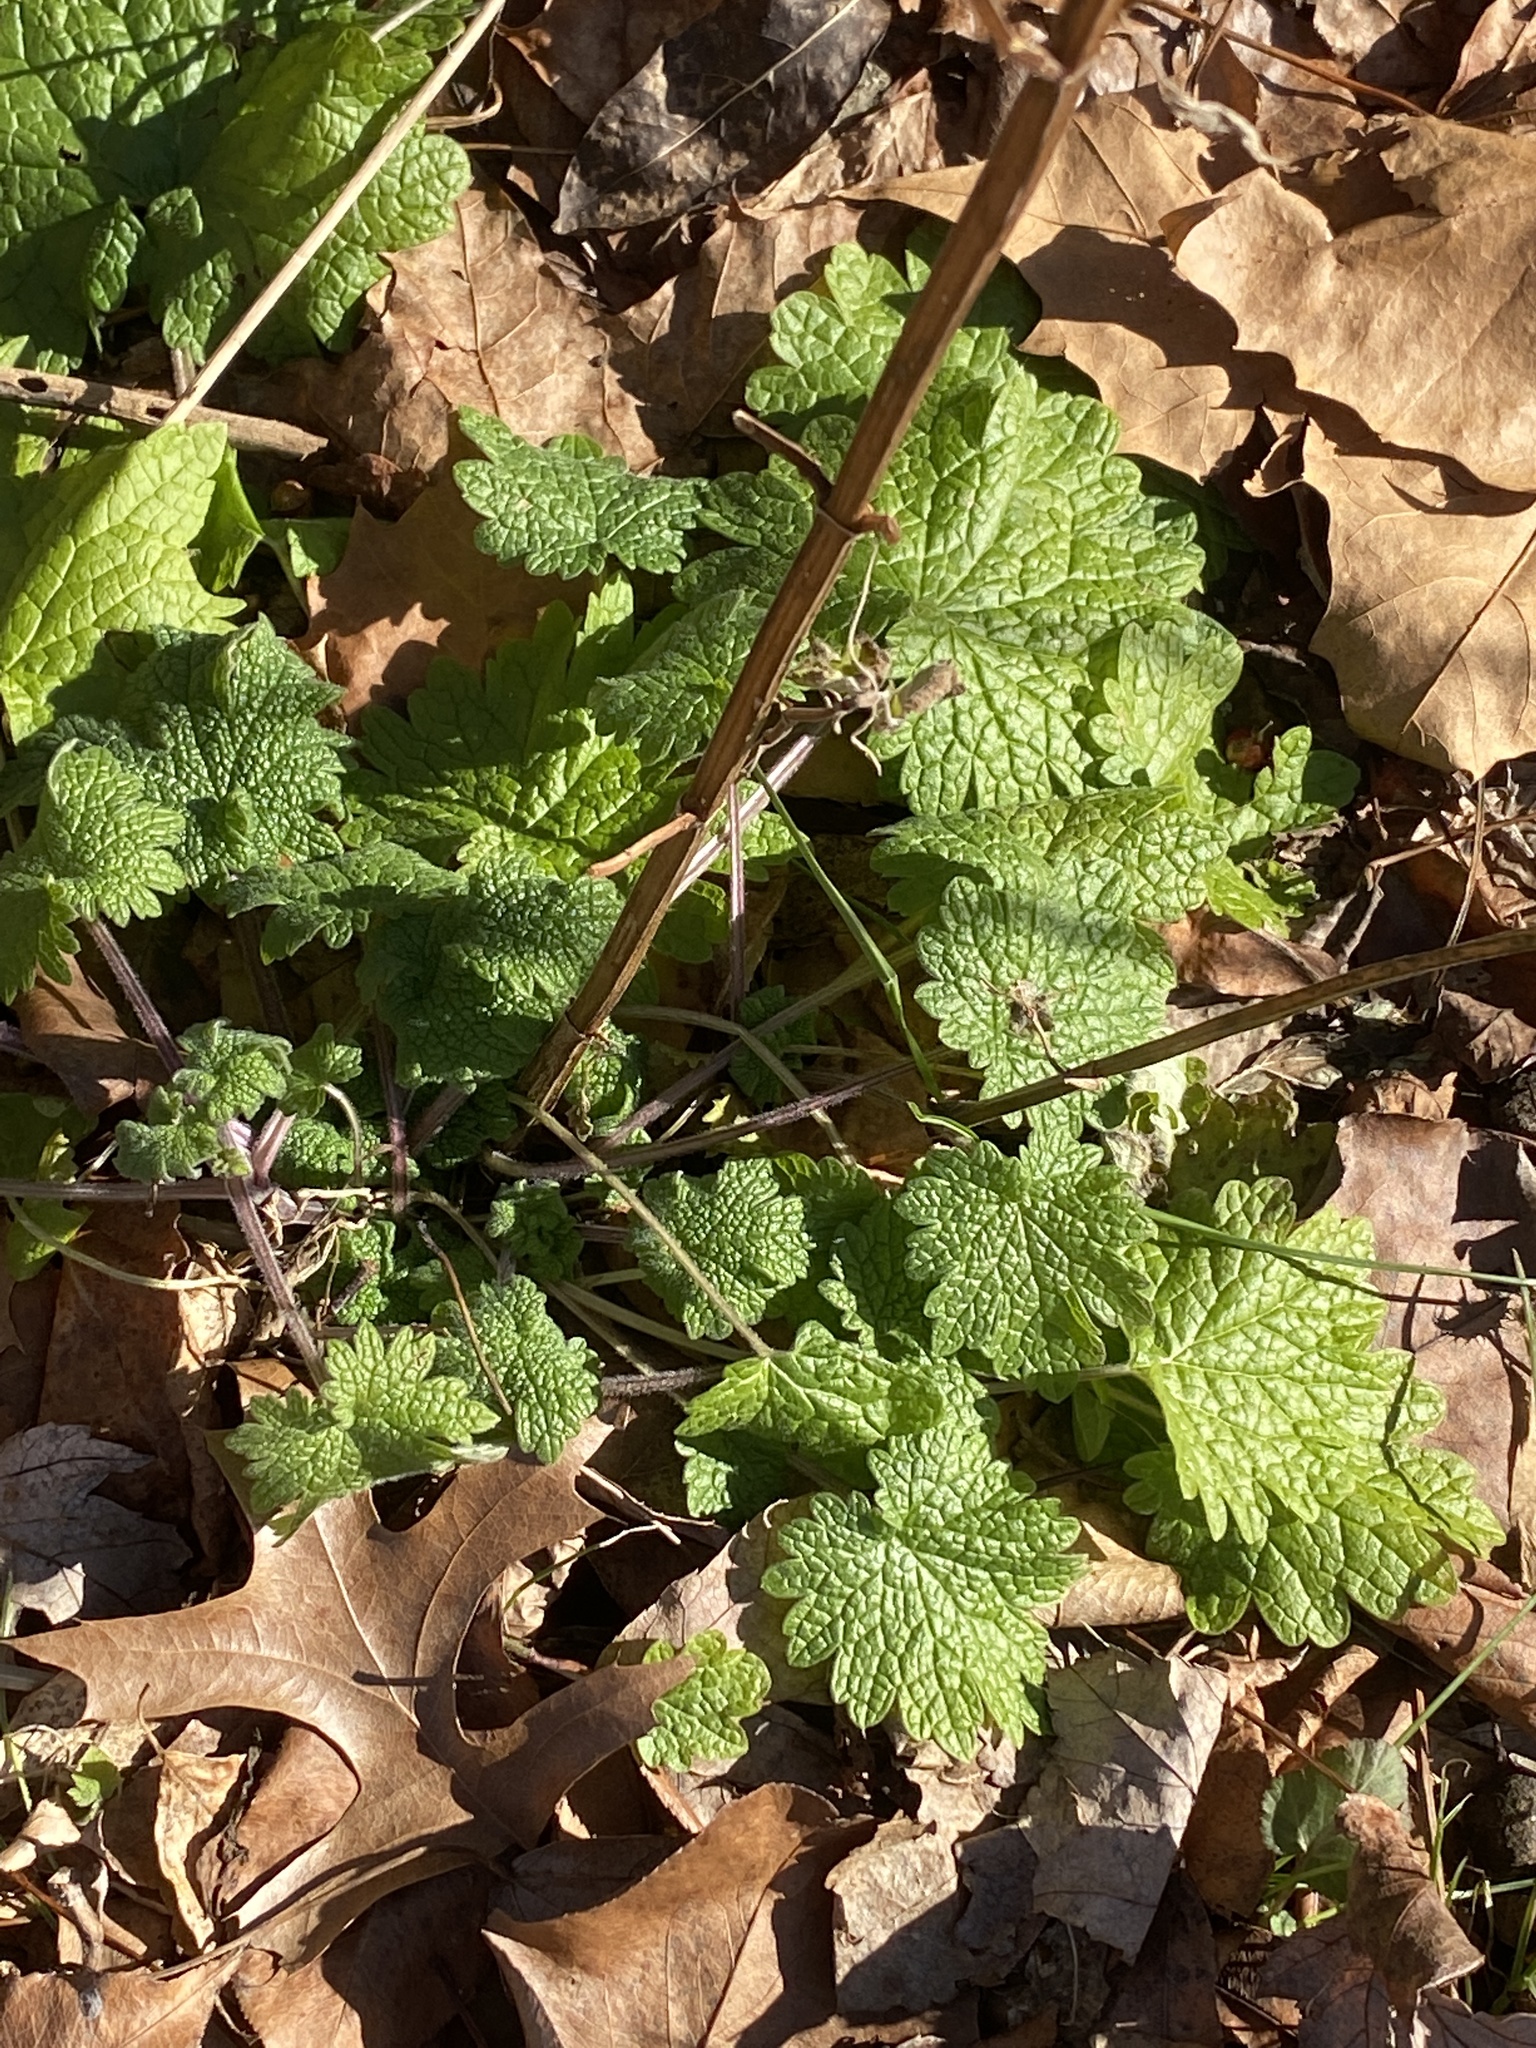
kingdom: Plantae
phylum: Tracheophyta
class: Magnoliopsida
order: Lamiales
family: Lamiaceae
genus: Leonurus
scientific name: Leonurus cardiaca
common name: Motherwort
